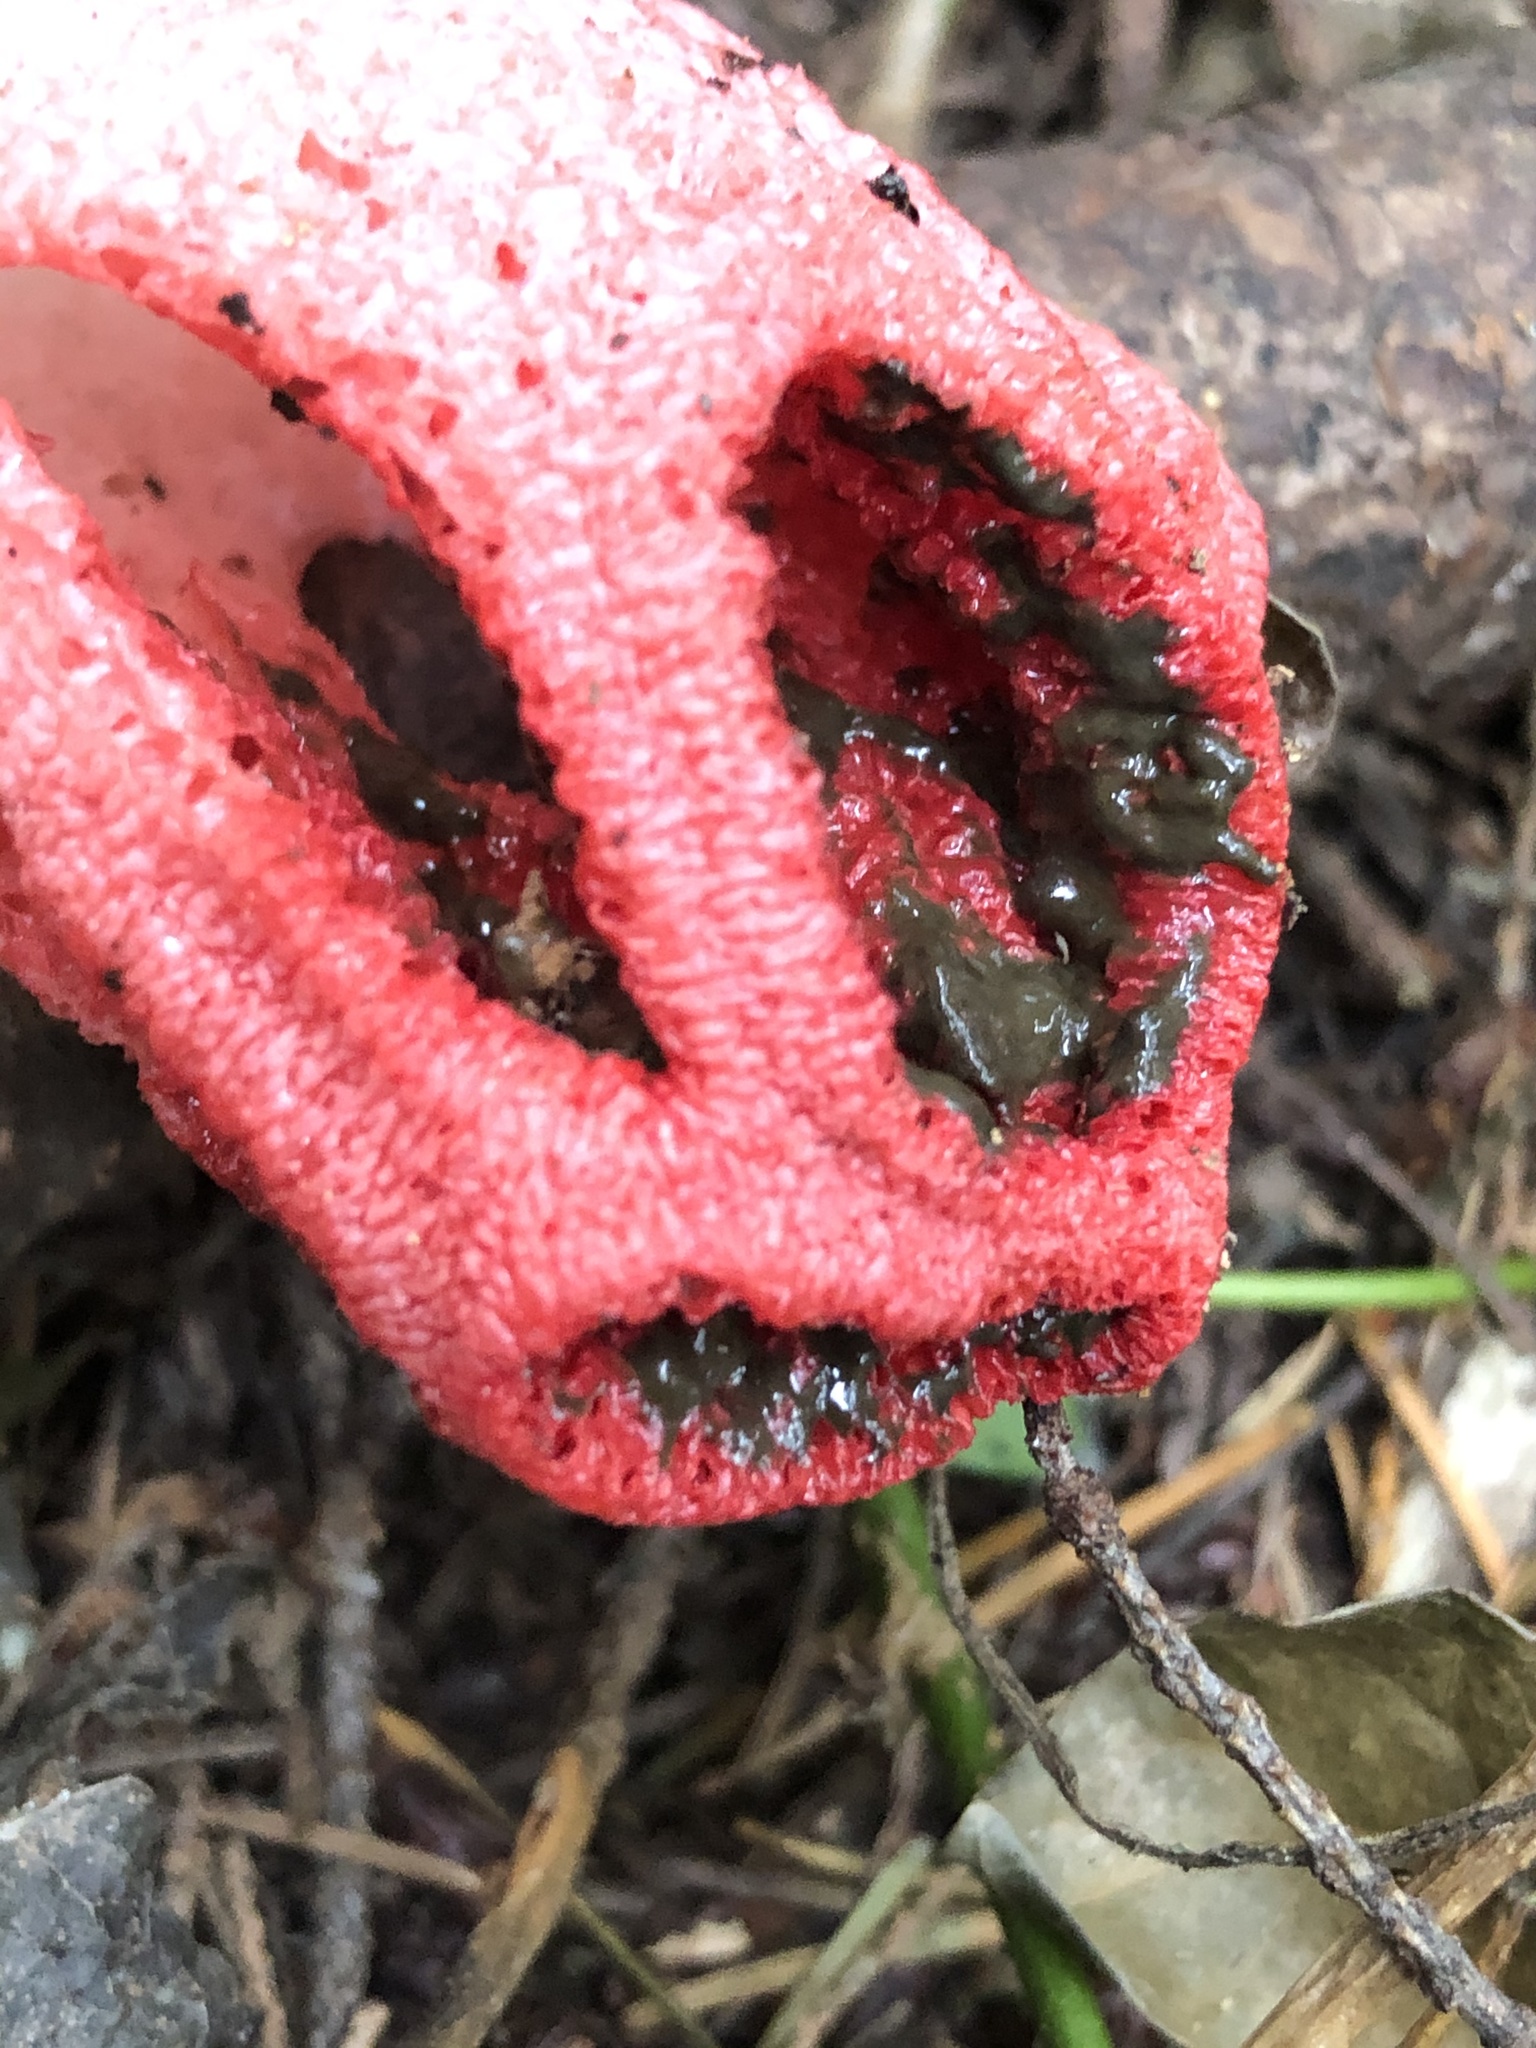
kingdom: Fungi
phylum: Basidiomycota
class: Agaricomycetes
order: Phallales
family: Phallaceae
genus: Clathrus
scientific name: Clathrus archeri
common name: Devil's fingers
